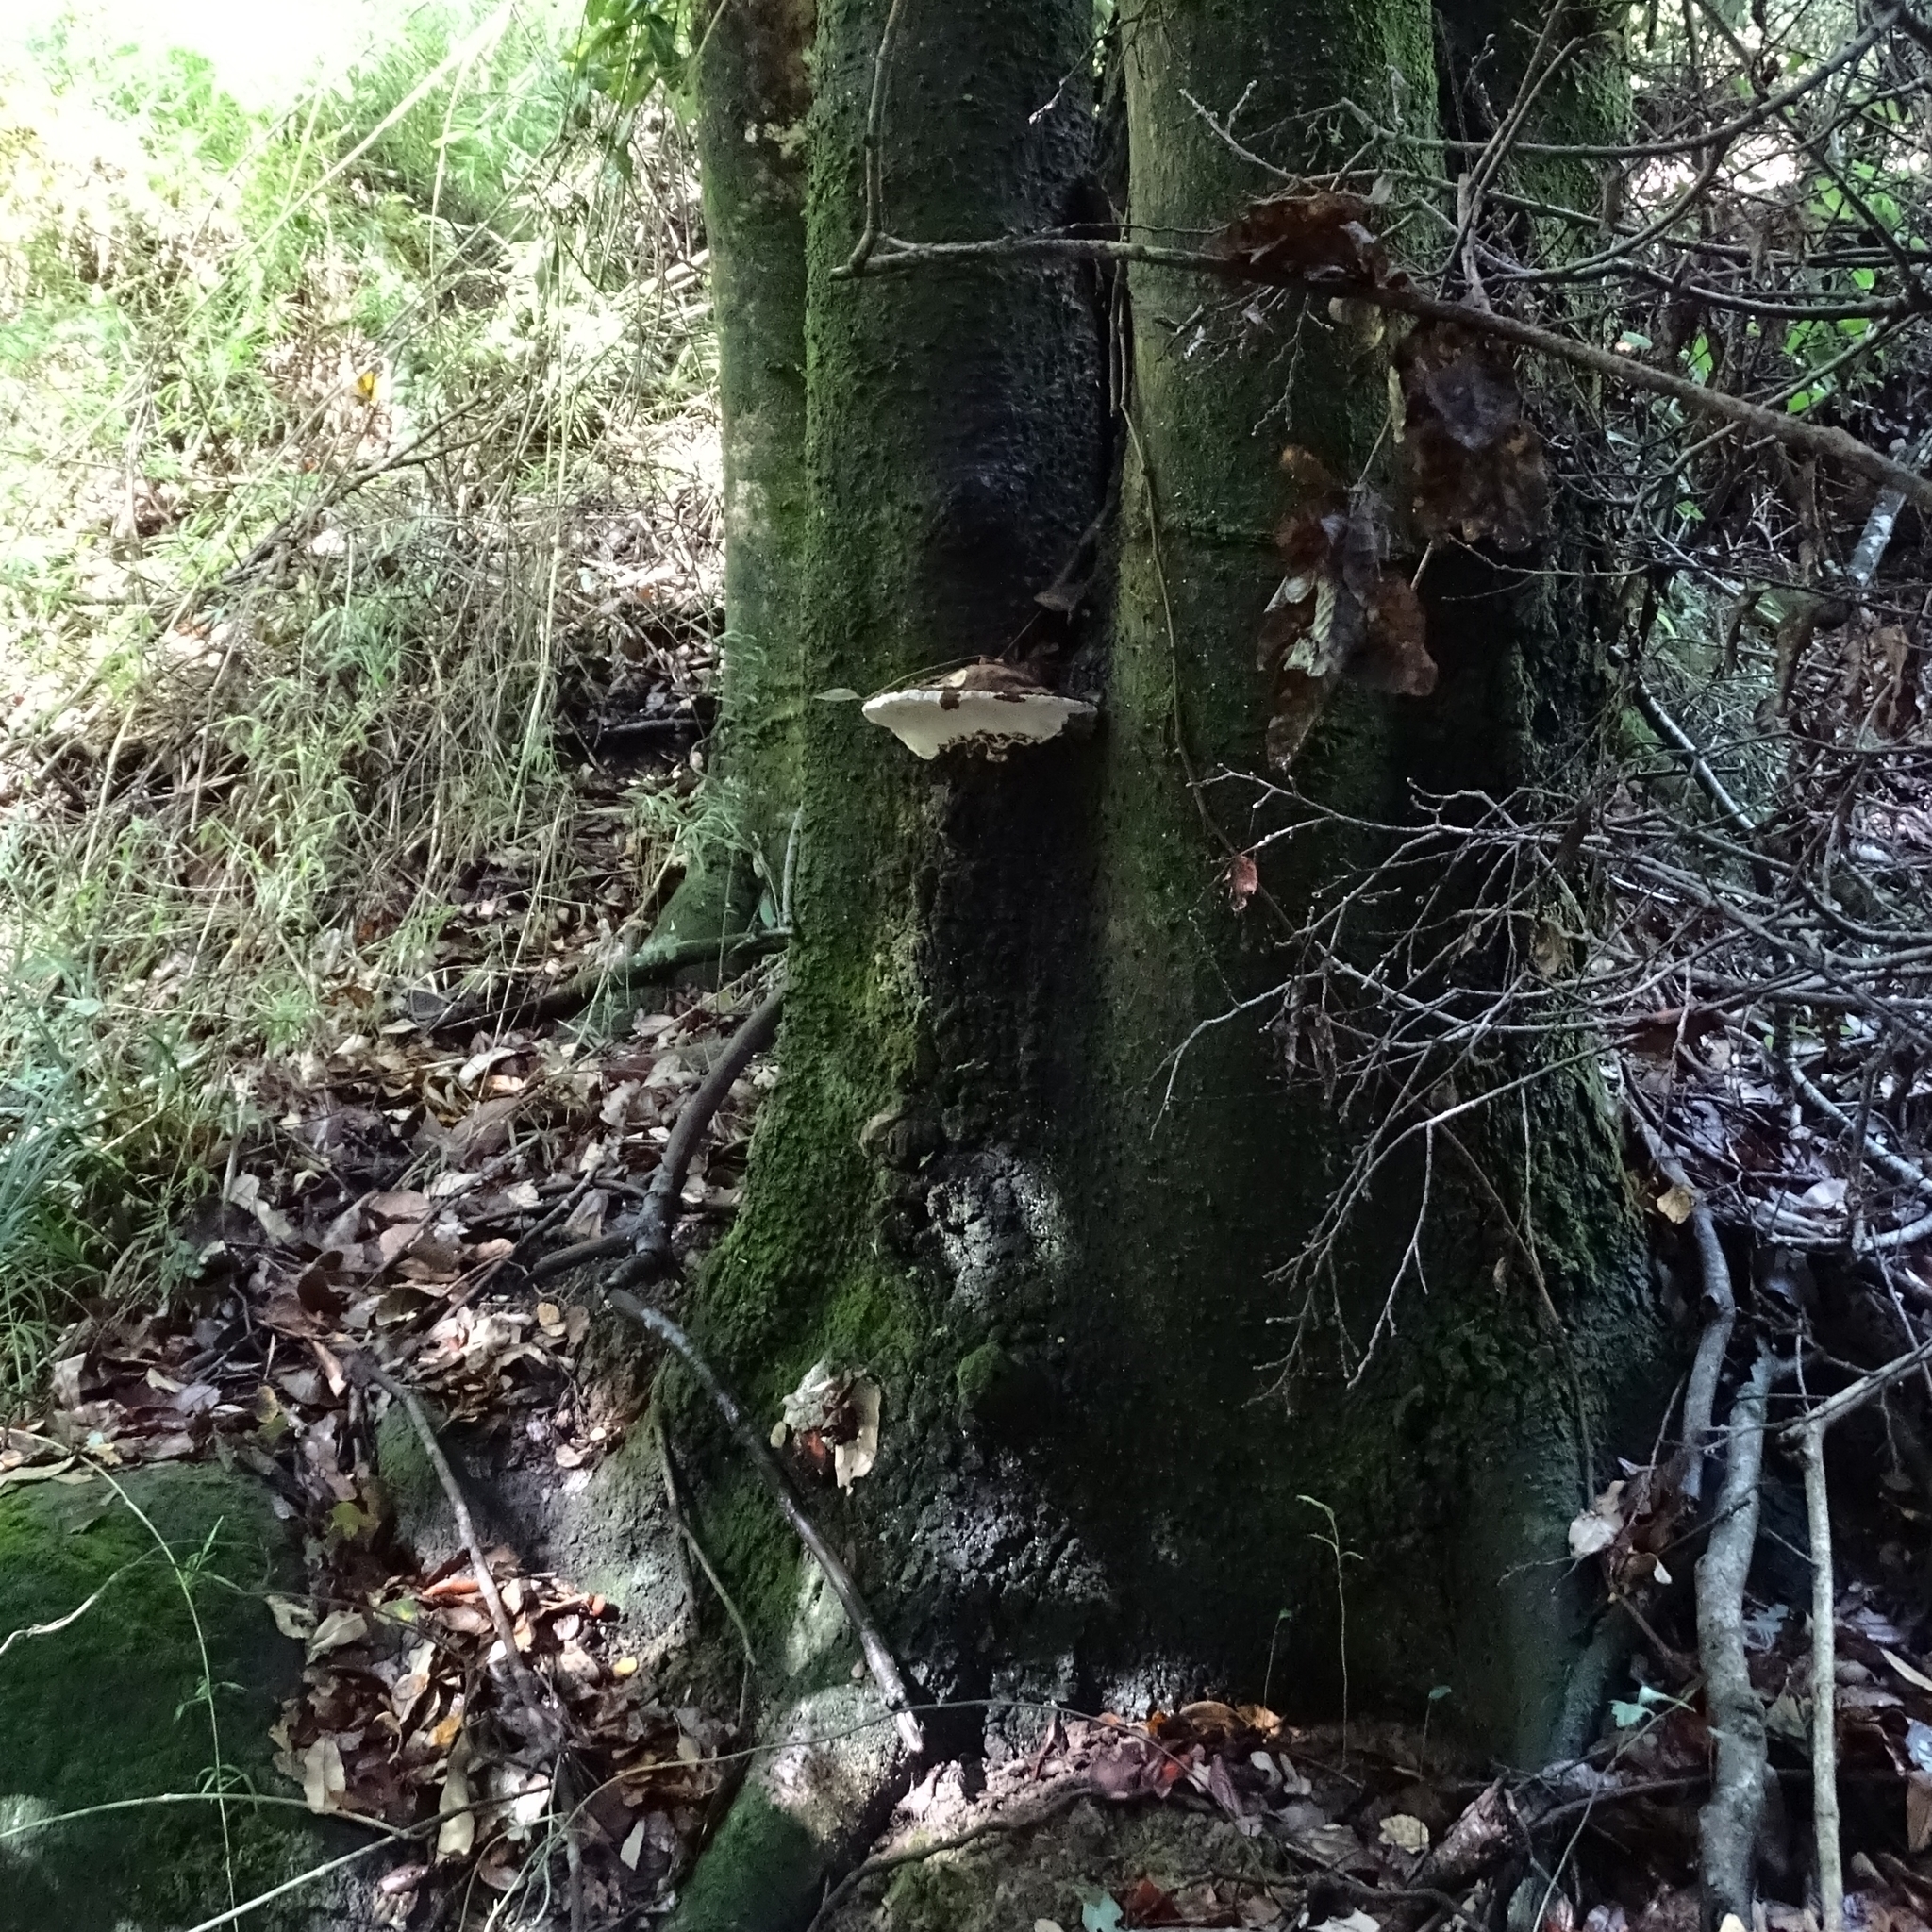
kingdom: Fungi
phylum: Basidiomycota
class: Agaricomycetes
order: Polyporales
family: Polyporaceae
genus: Ganoderma
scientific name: Ganoderma australe
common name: Southern bracket
